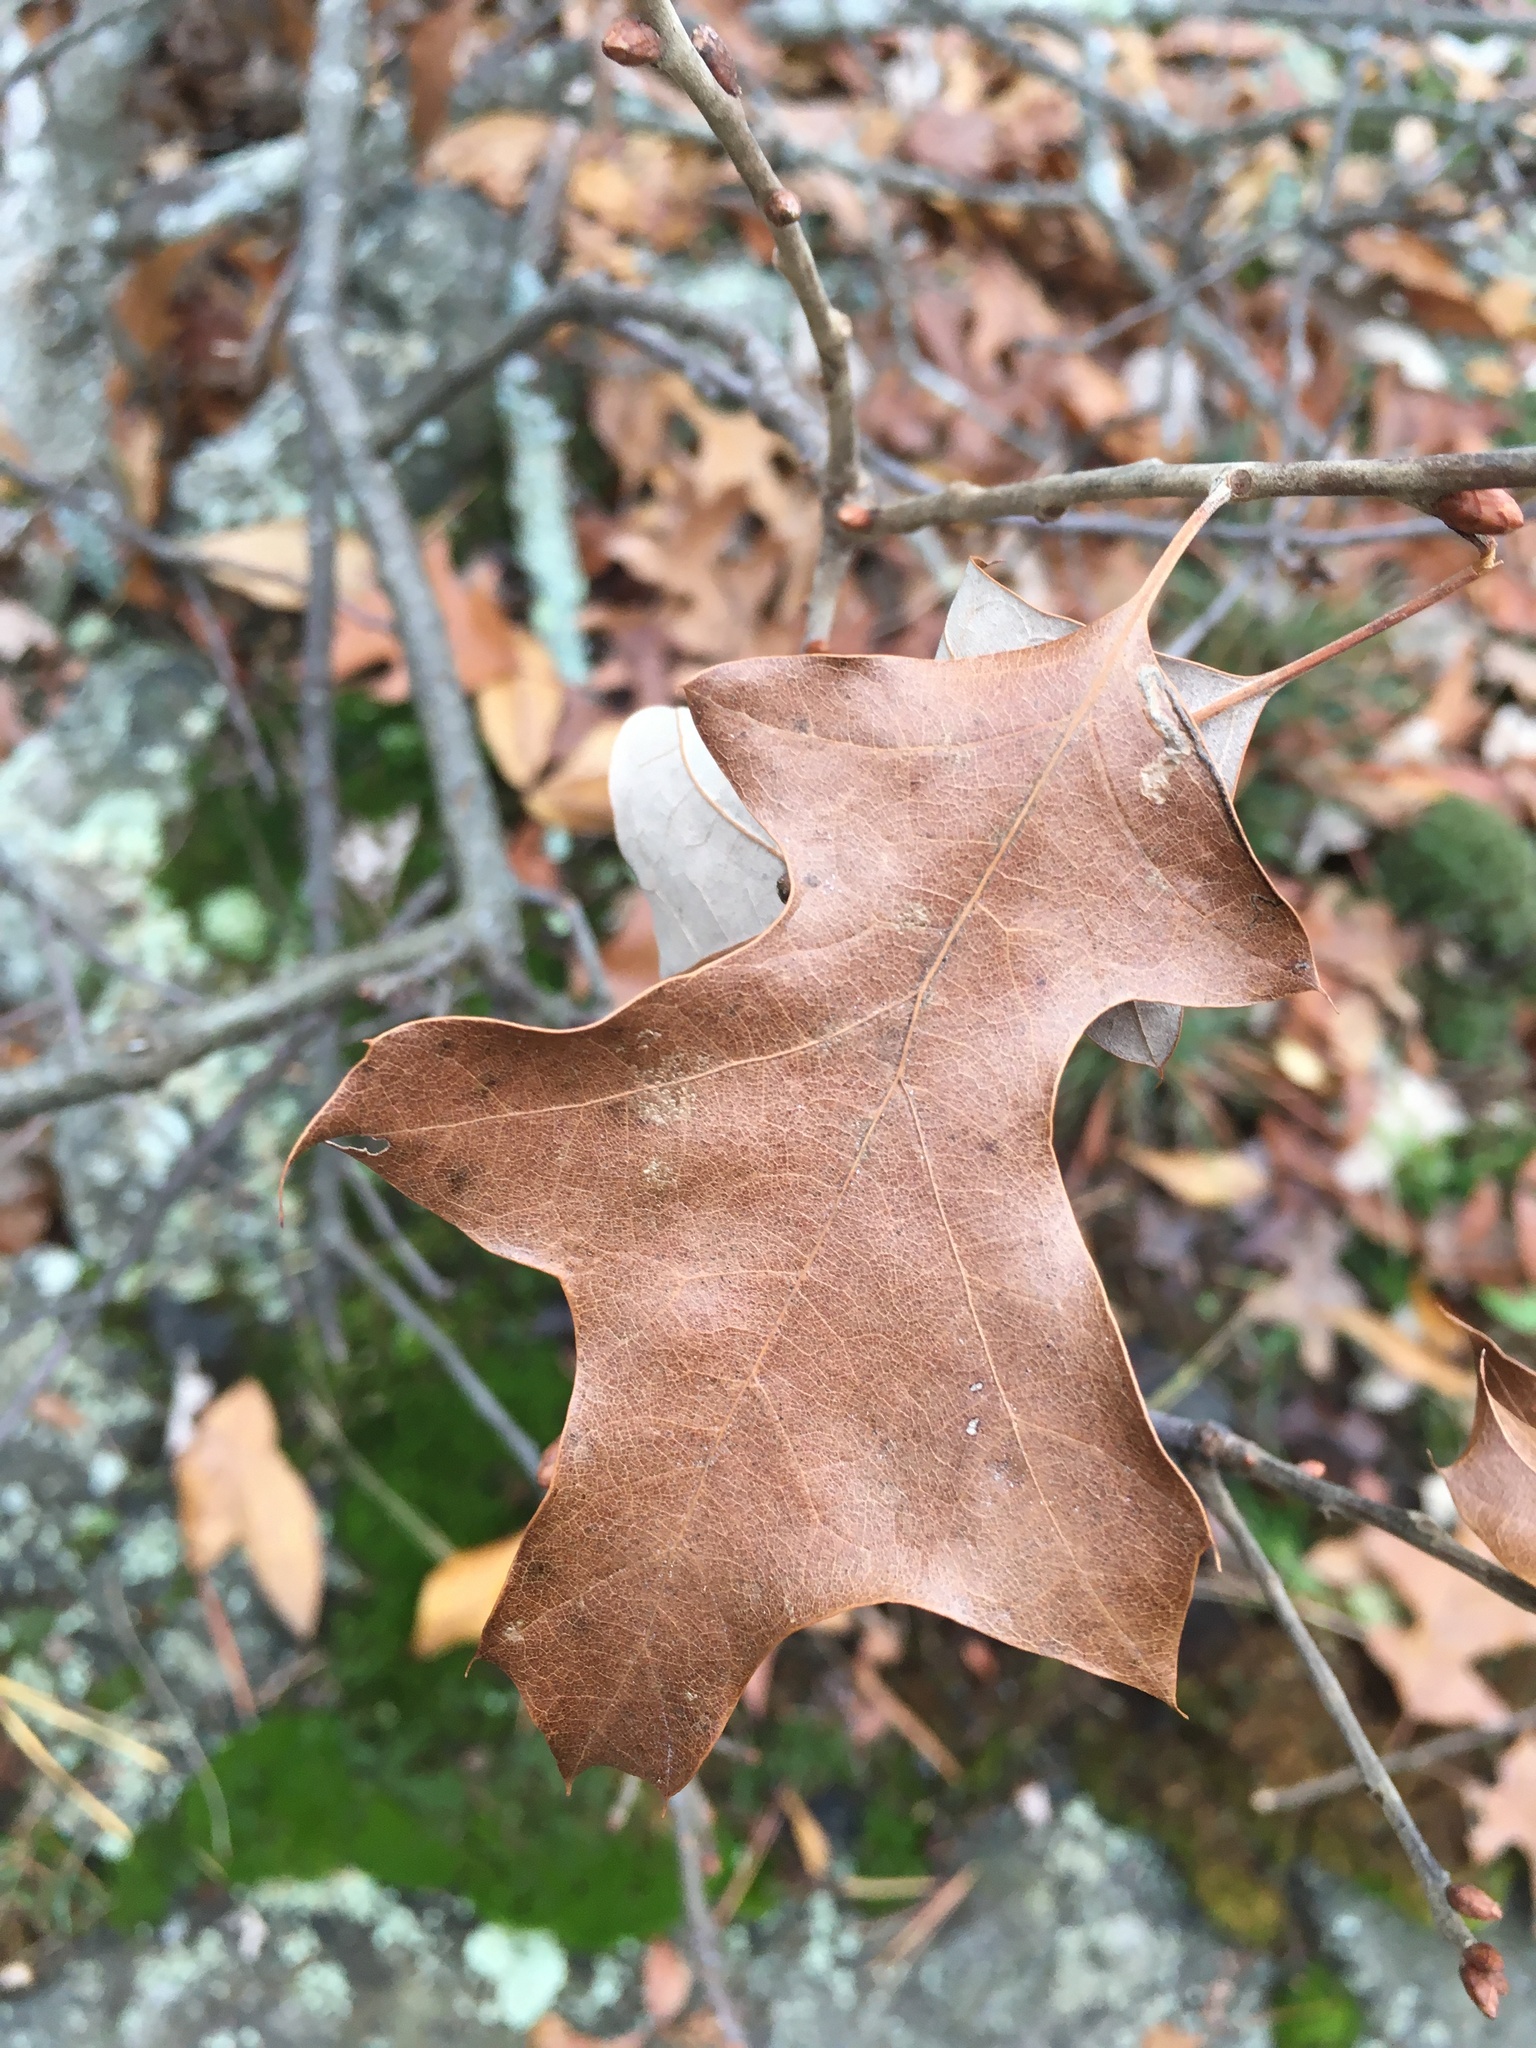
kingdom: Plantae
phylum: Tracheophyta
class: Magnoliopsida
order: Fagales
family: Fagaceae
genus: Quercus
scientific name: Quercus ilicifolia
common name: Bear oak
